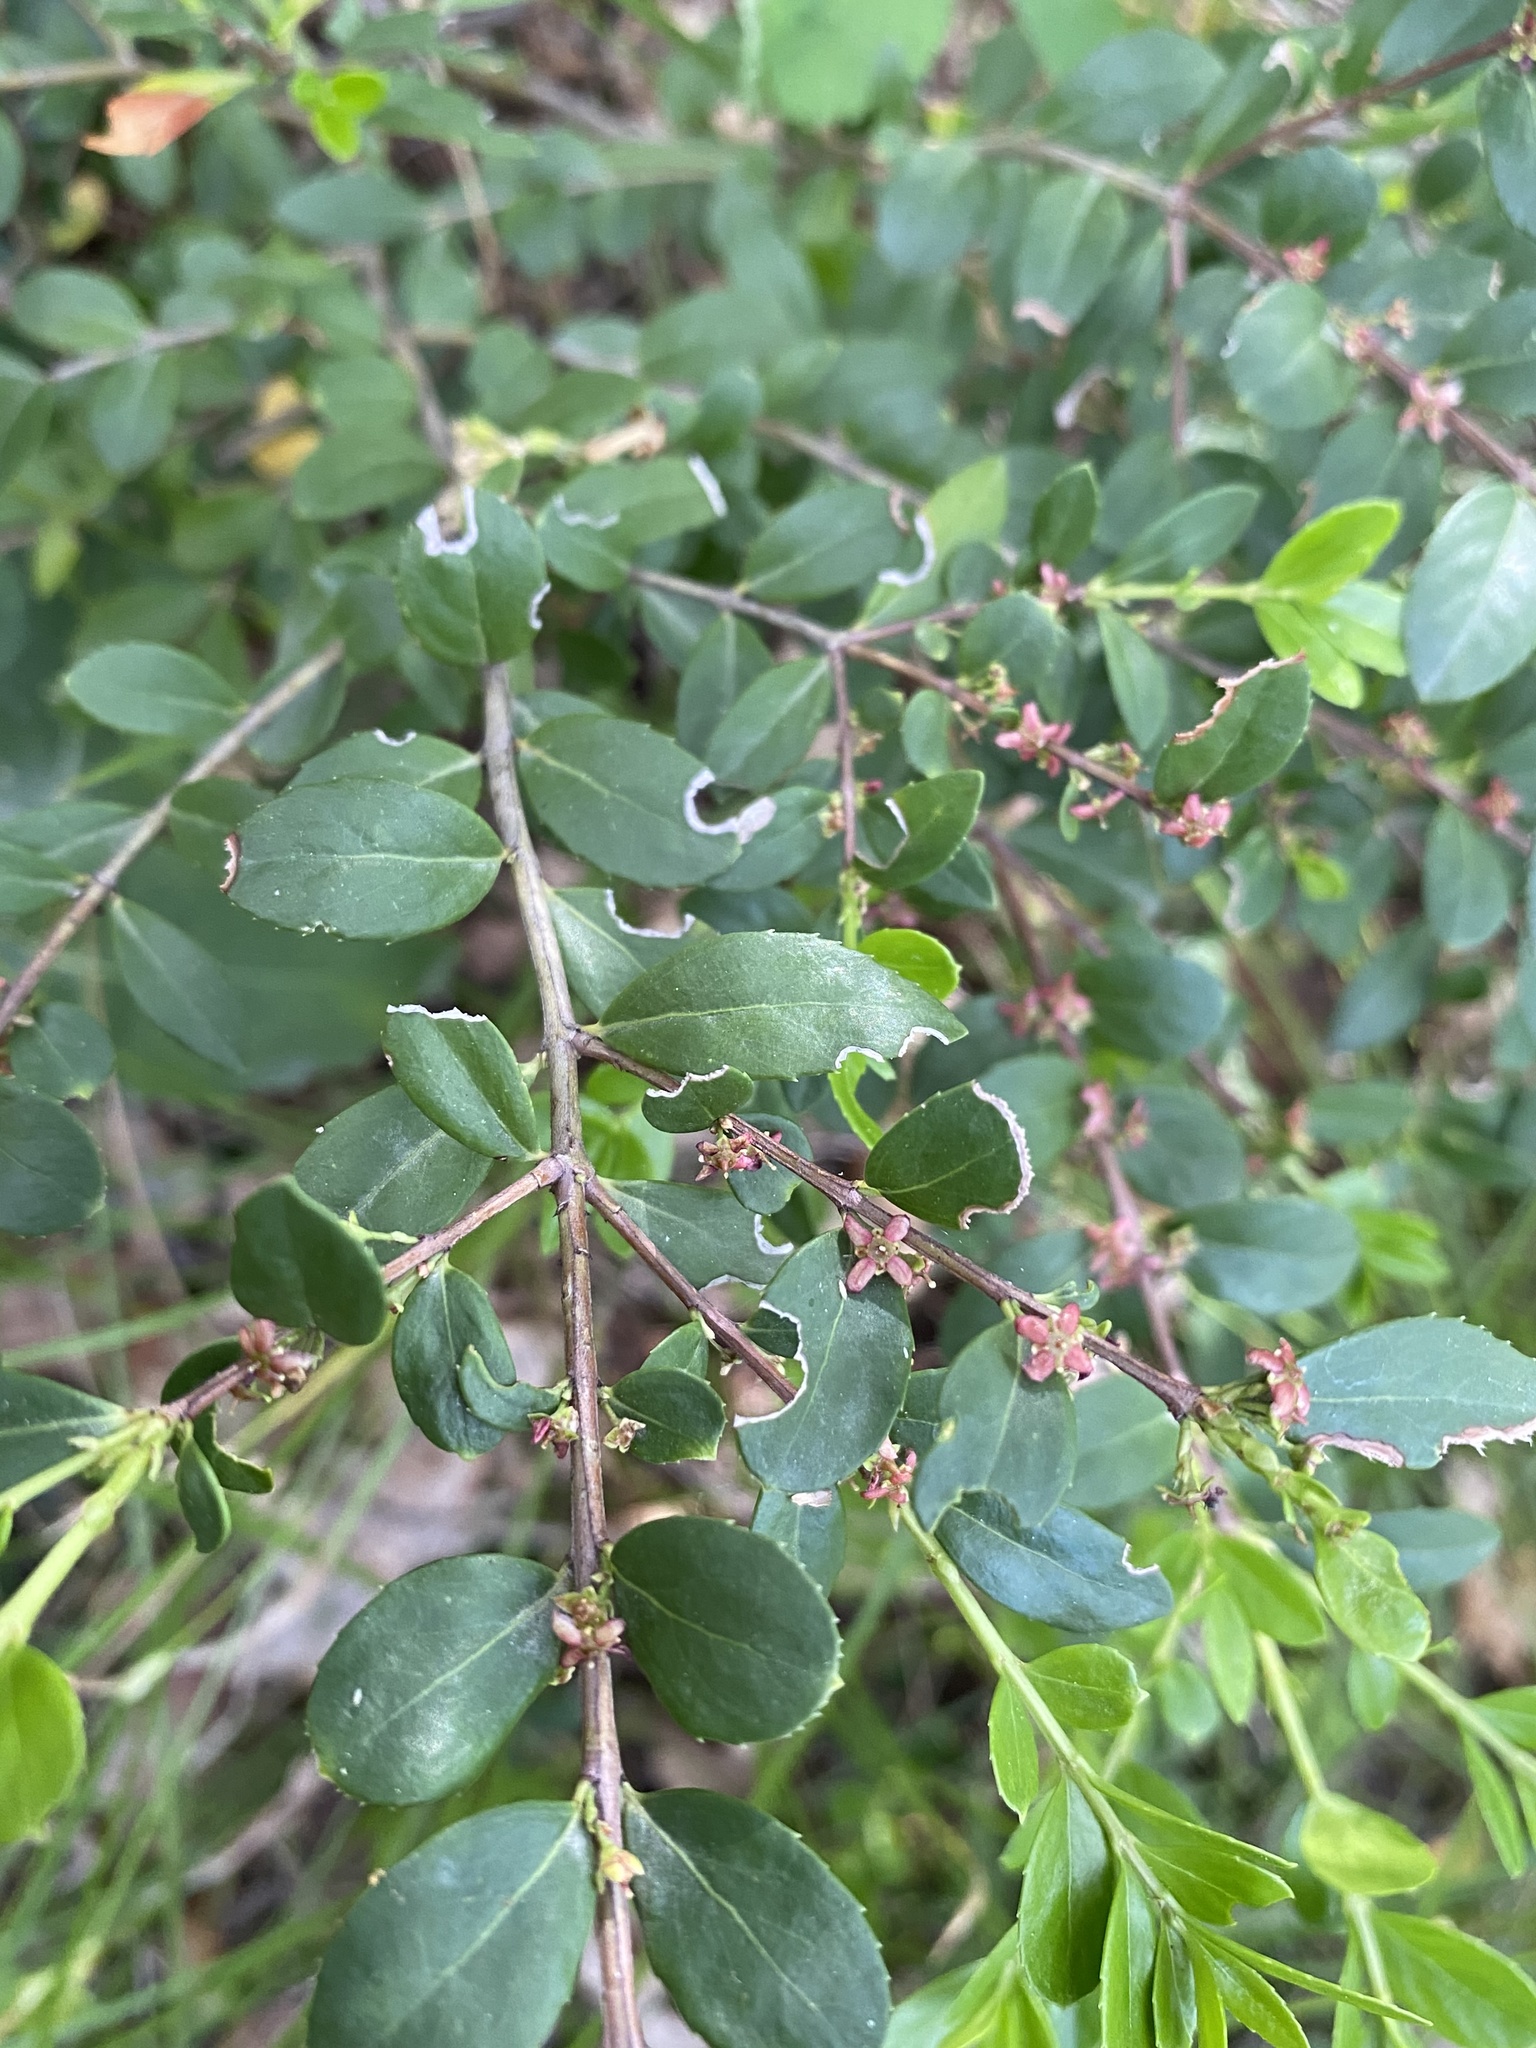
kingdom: Plantae
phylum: Tracheophyta
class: Magnoliopsida
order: Celastrales
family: Celastraceae
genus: Paxistima
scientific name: Paxistima myrsinites
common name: Mountain-lover
